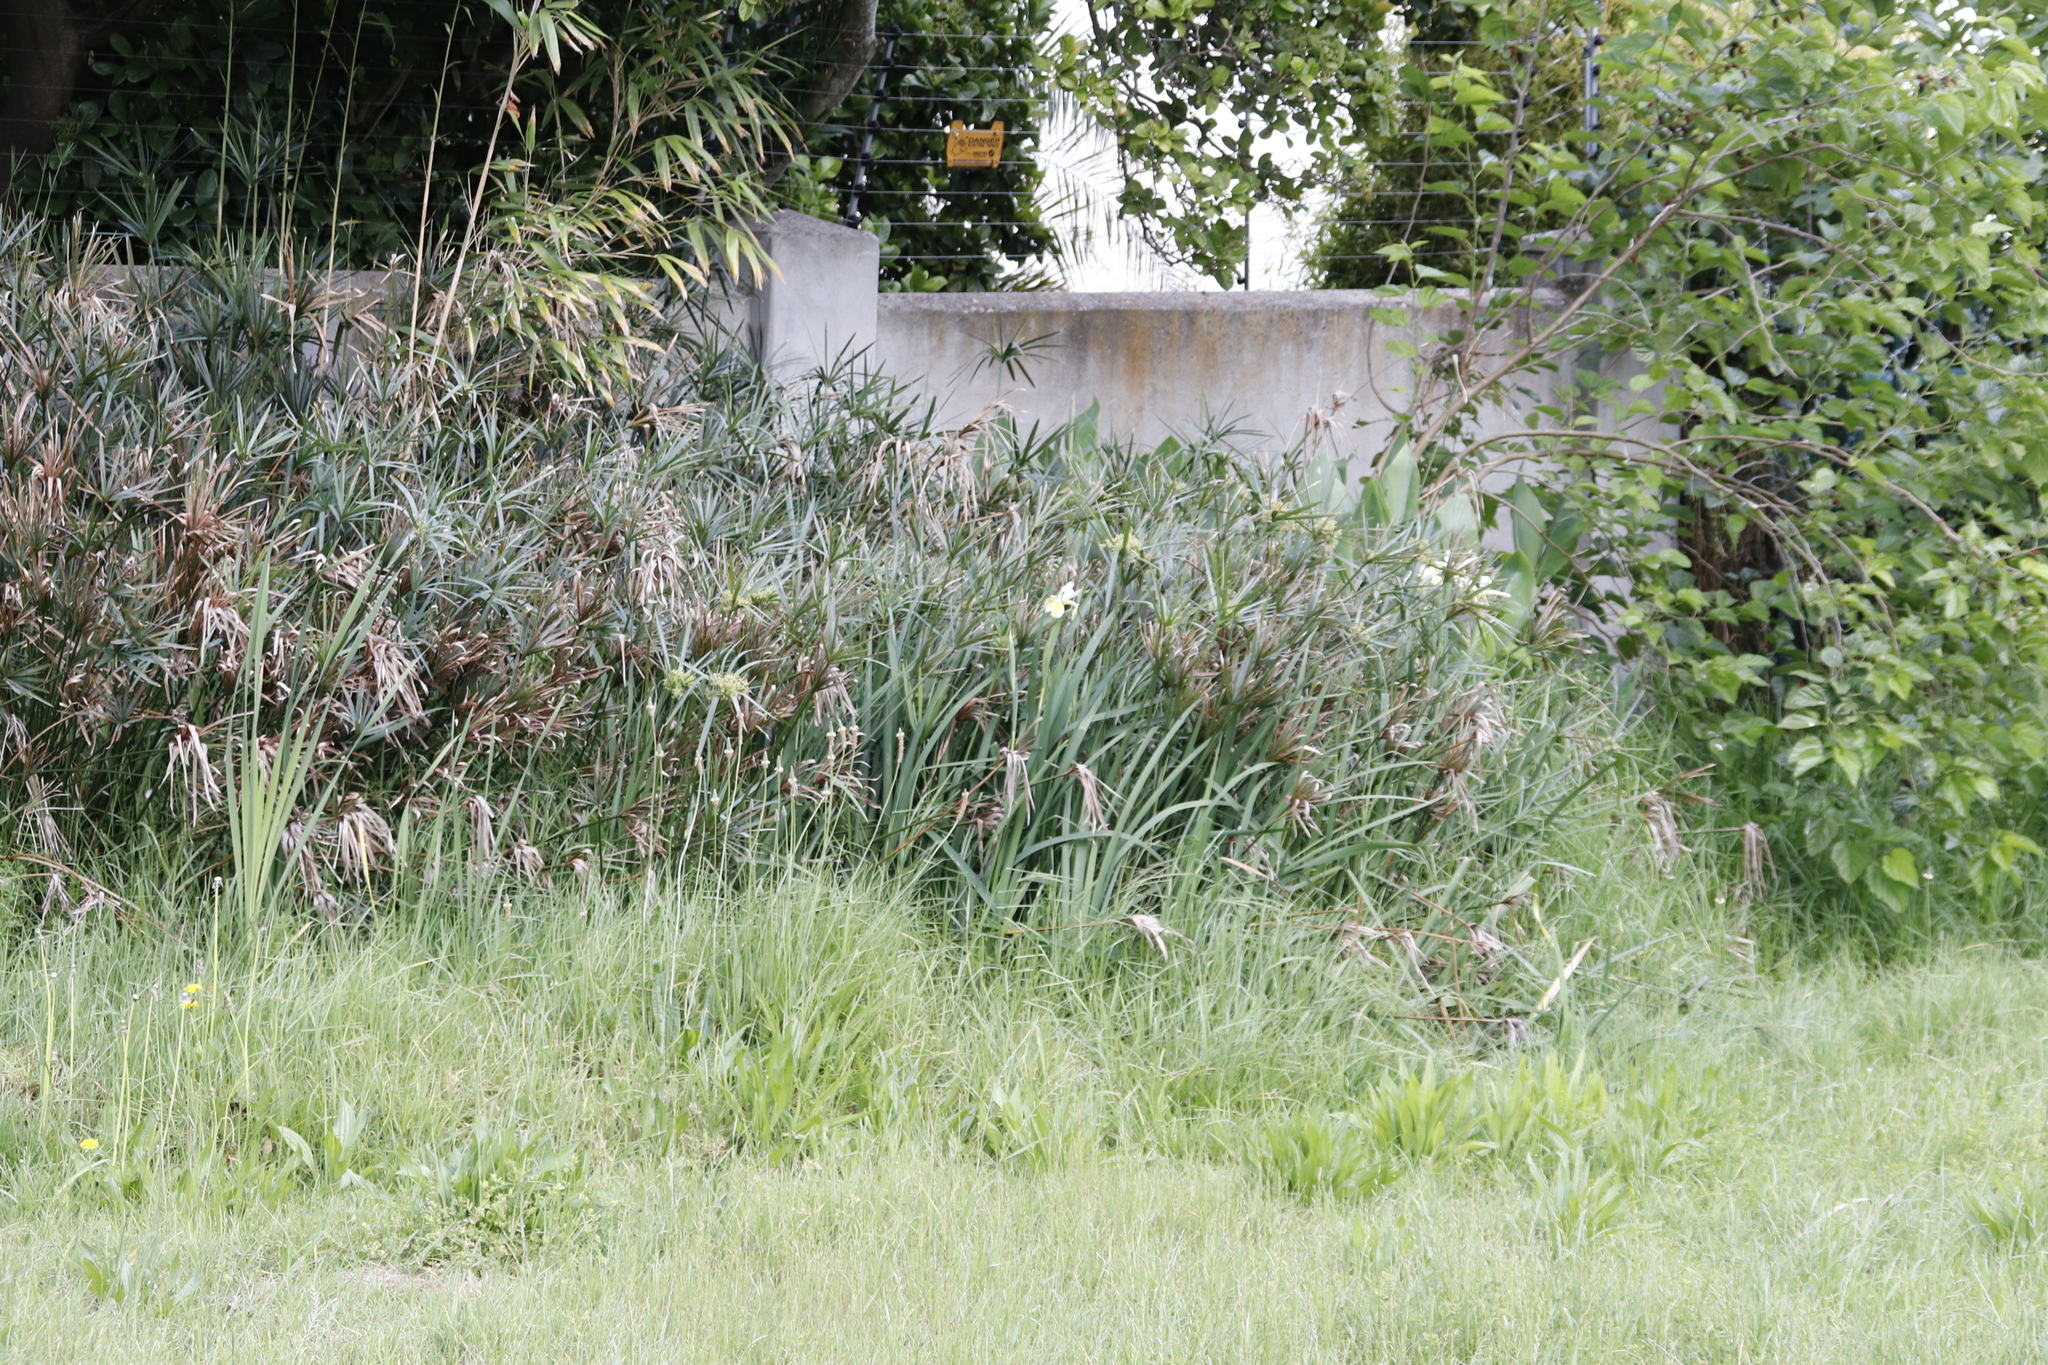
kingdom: Plantae
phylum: Tracheophyta
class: Liliopsida
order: Asparagales
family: Iridaceae
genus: Iris
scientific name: Iris orientalis
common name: Turkish iris
